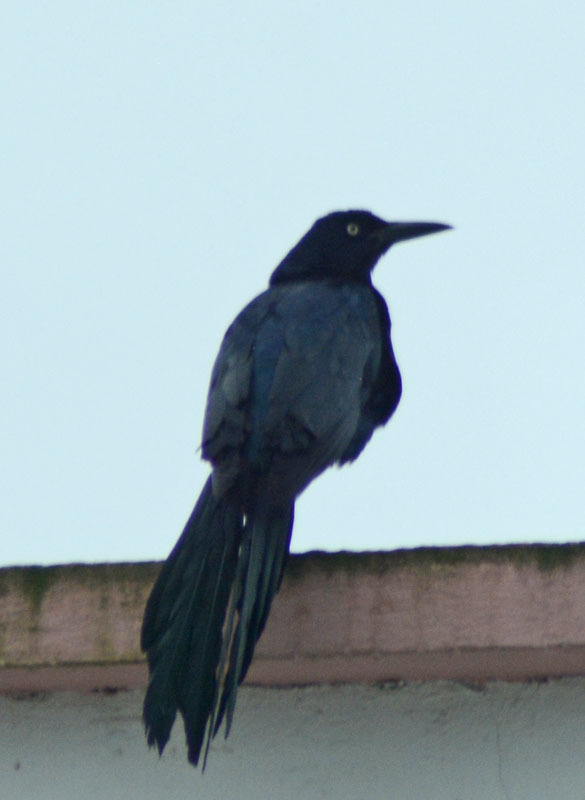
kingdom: Animalia
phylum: Chordata
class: Aves
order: Passeriformes
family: Icteridae
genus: Quiscalus
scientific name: Quiscalus mexicanus
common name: Great-tailed grackle
